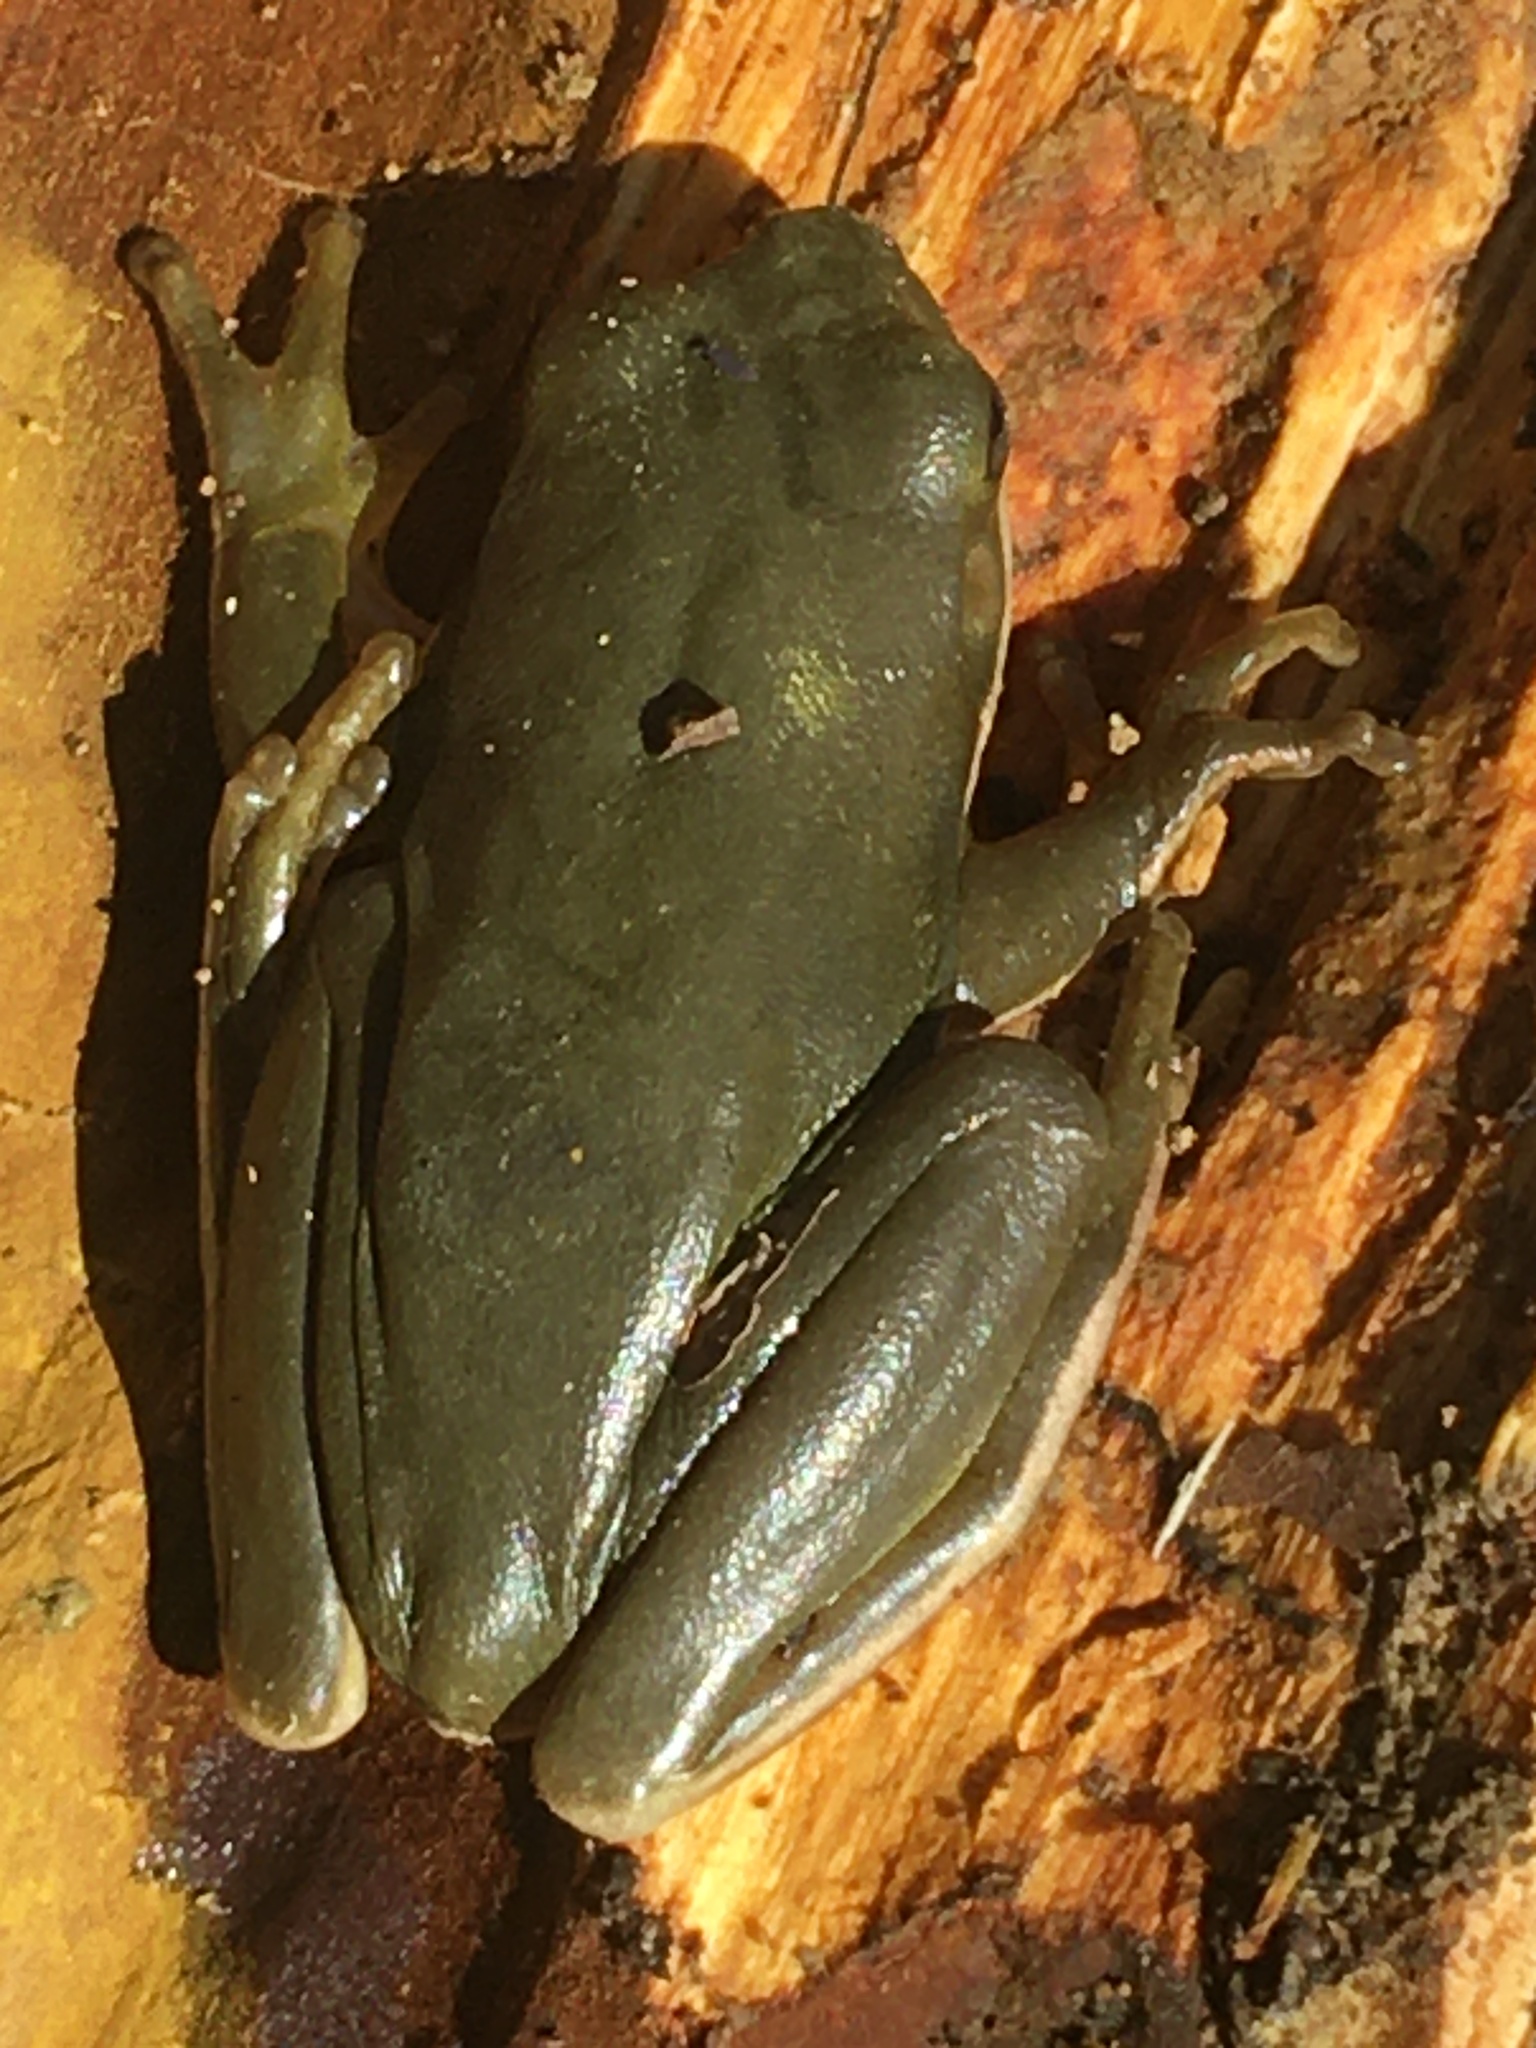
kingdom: Animalia
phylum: Chordata
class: Amphibia
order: Anura
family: Hylidae
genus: Dryophytes
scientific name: Dryophytes cinereus
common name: Green treefrog
